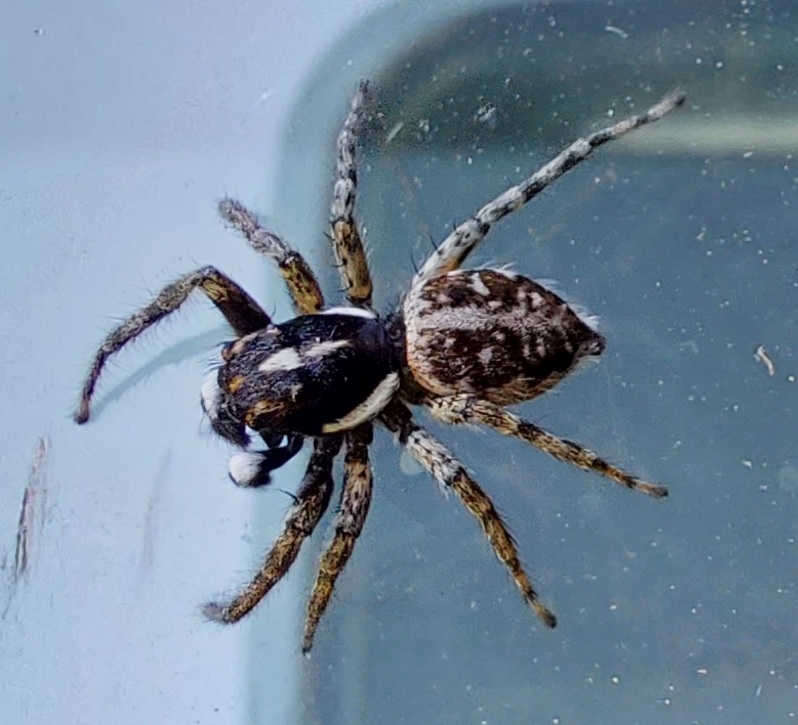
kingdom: Animalia
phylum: Arthropoda
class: Arachnida
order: Araneae
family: Salticidae
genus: Menemerus
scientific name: Menemerus semilimbatus
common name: Jumping spider
